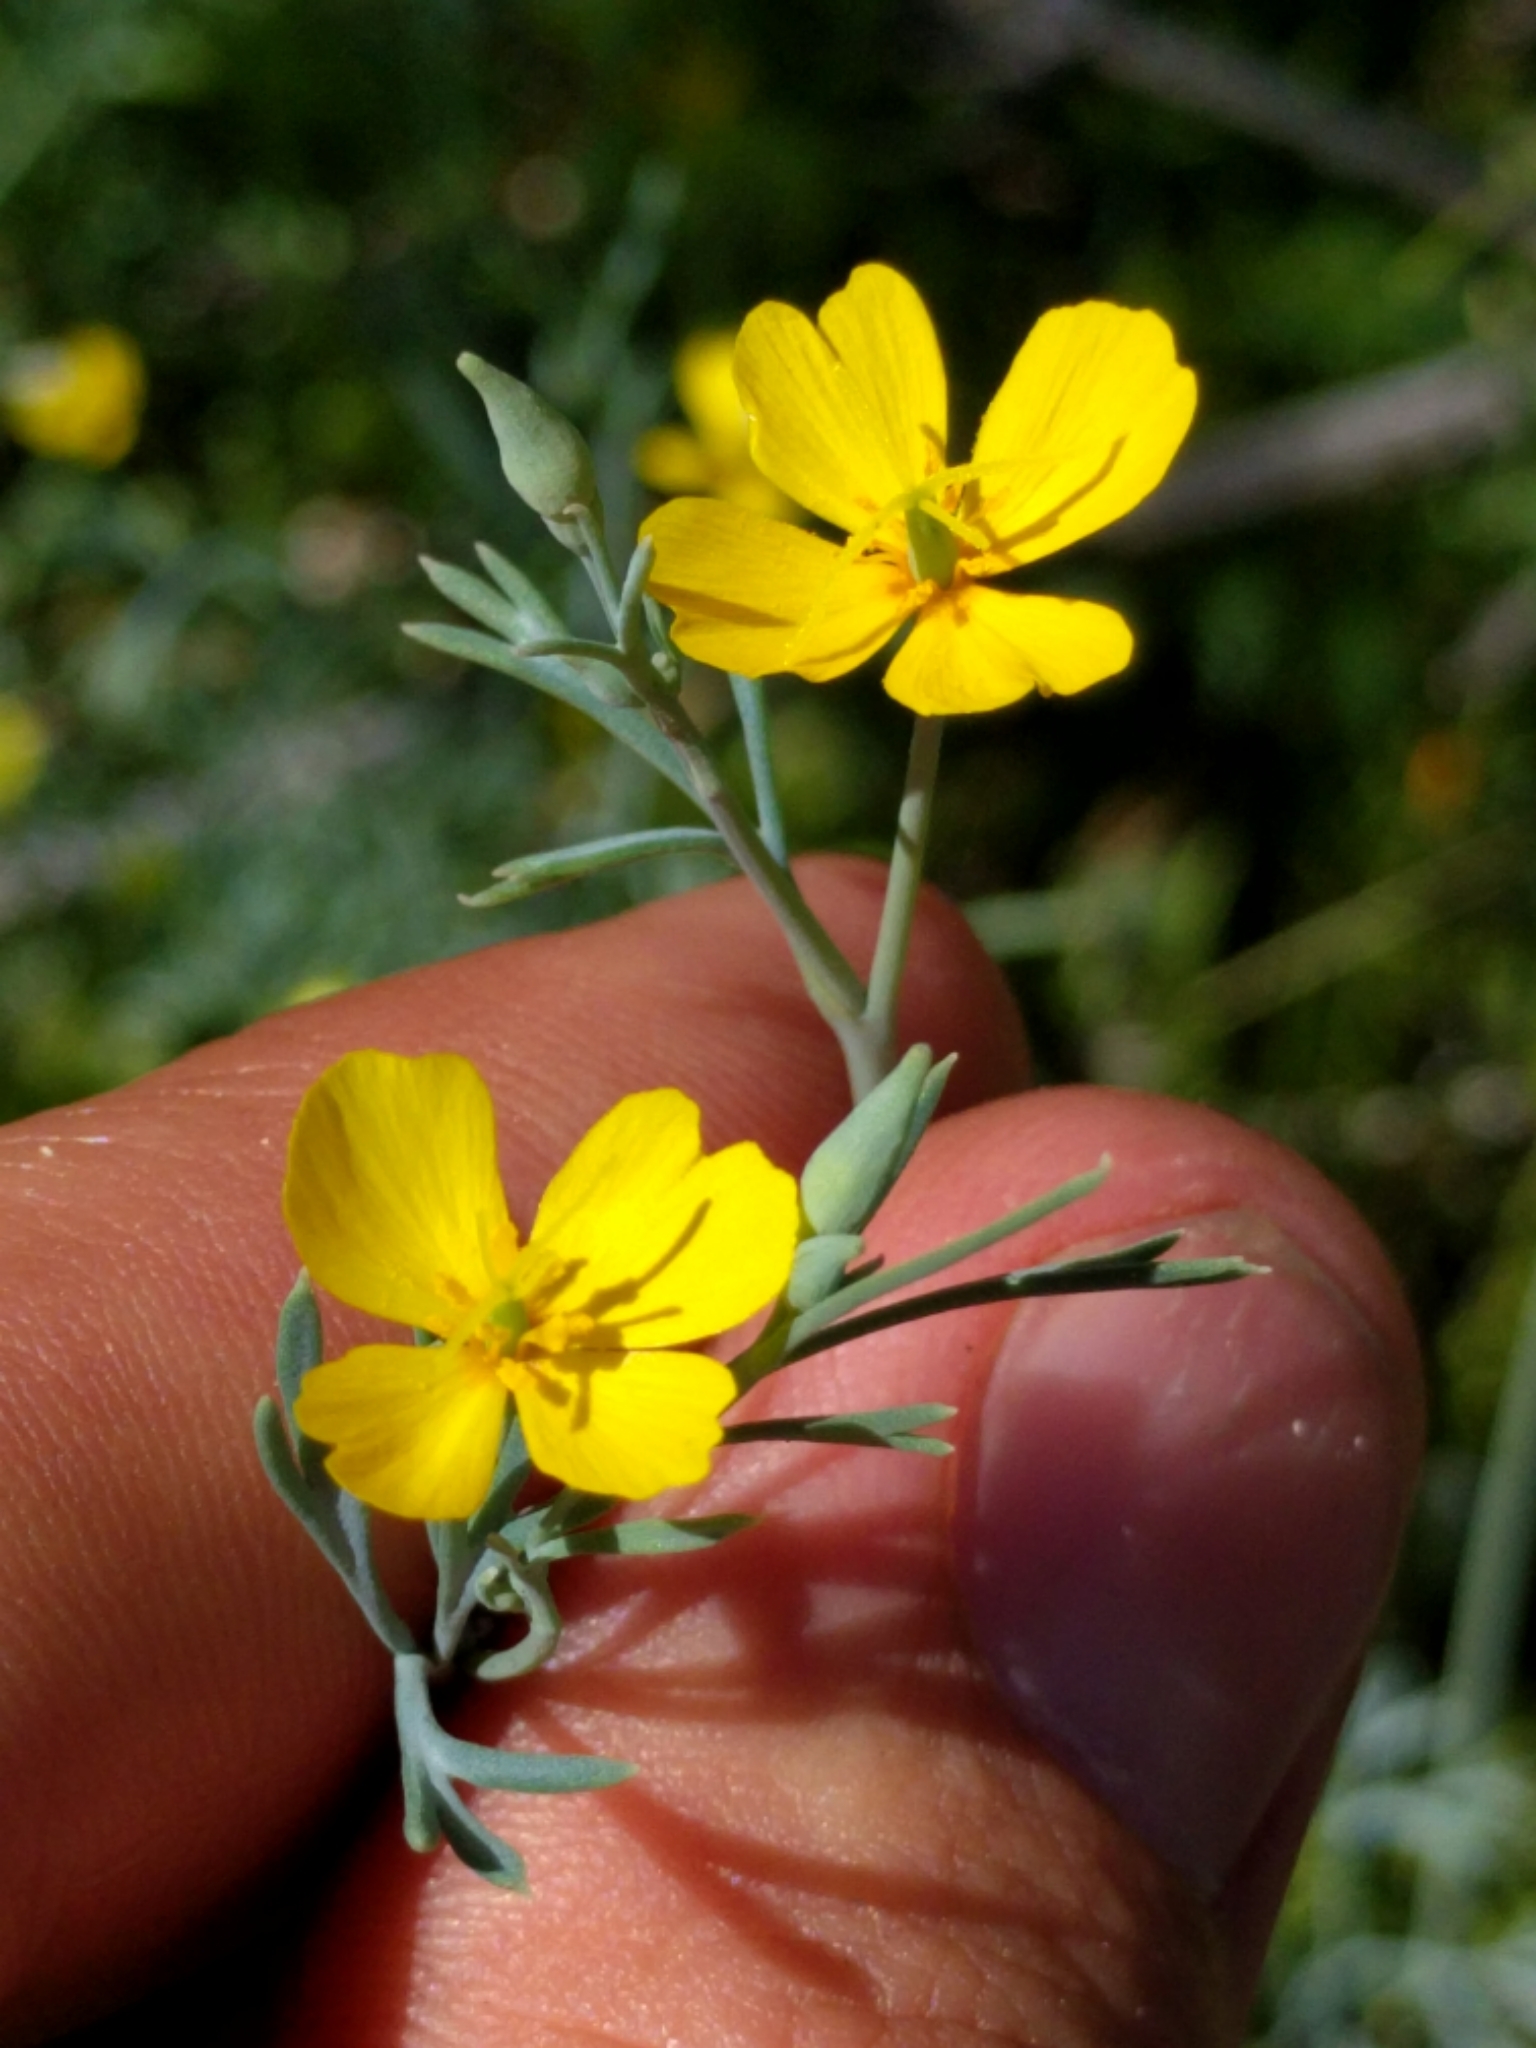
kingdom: Plantae
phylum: Tracheophyta
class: Magnoliopsida
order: Ranunculales
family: Papaveraceae
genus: Eschscholzia
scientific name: Eschscholzia minutiflora
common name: Small-flower california-poppy
